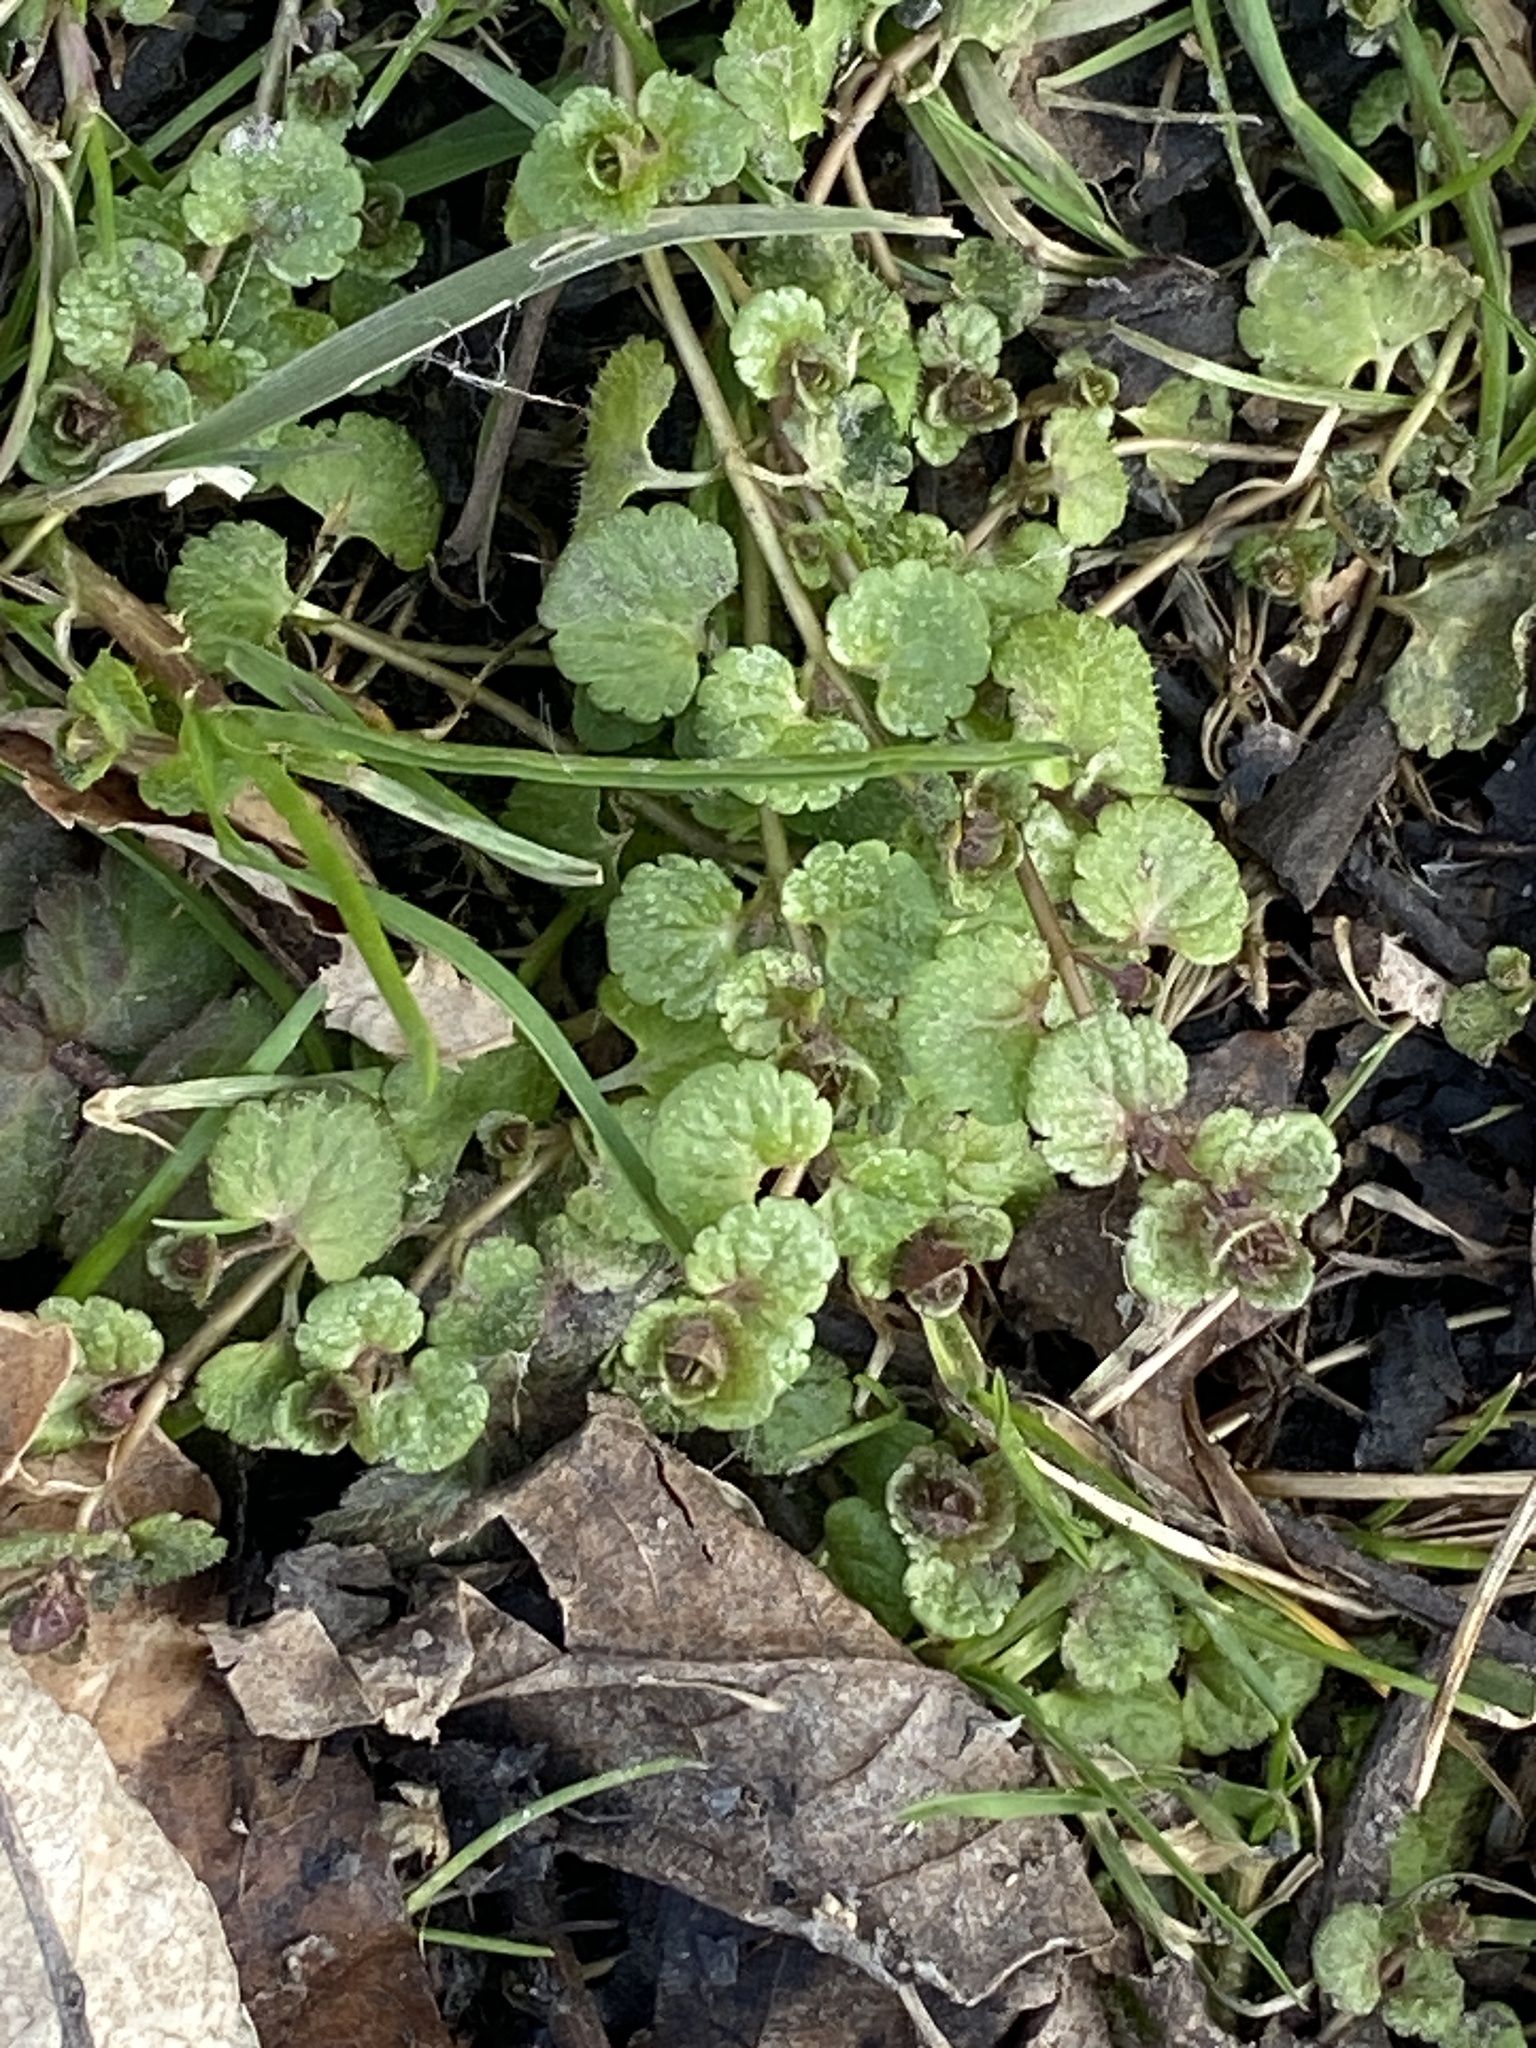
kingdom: Plantae
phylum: Tracheophyta
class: Magnoliopsida
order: Lamiales
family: Plantaginaceae
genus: Veronica
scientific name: Veronica filiformis
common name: Slender speedwell
